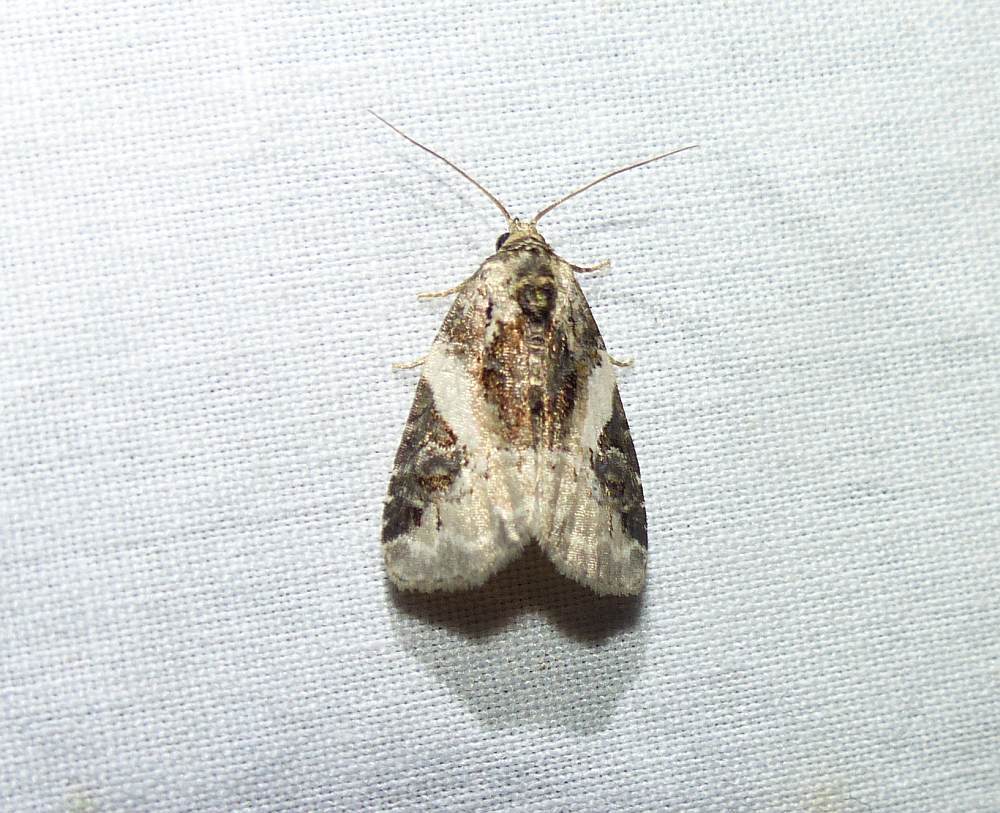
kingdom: Animalia
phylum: Arthropoda
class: Insecta
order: Lepidoptera
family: Noctuidae
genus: Pseudeustrotia
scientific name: Pseudeustrotia carneola
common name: Pink-barred lithacodia moth
